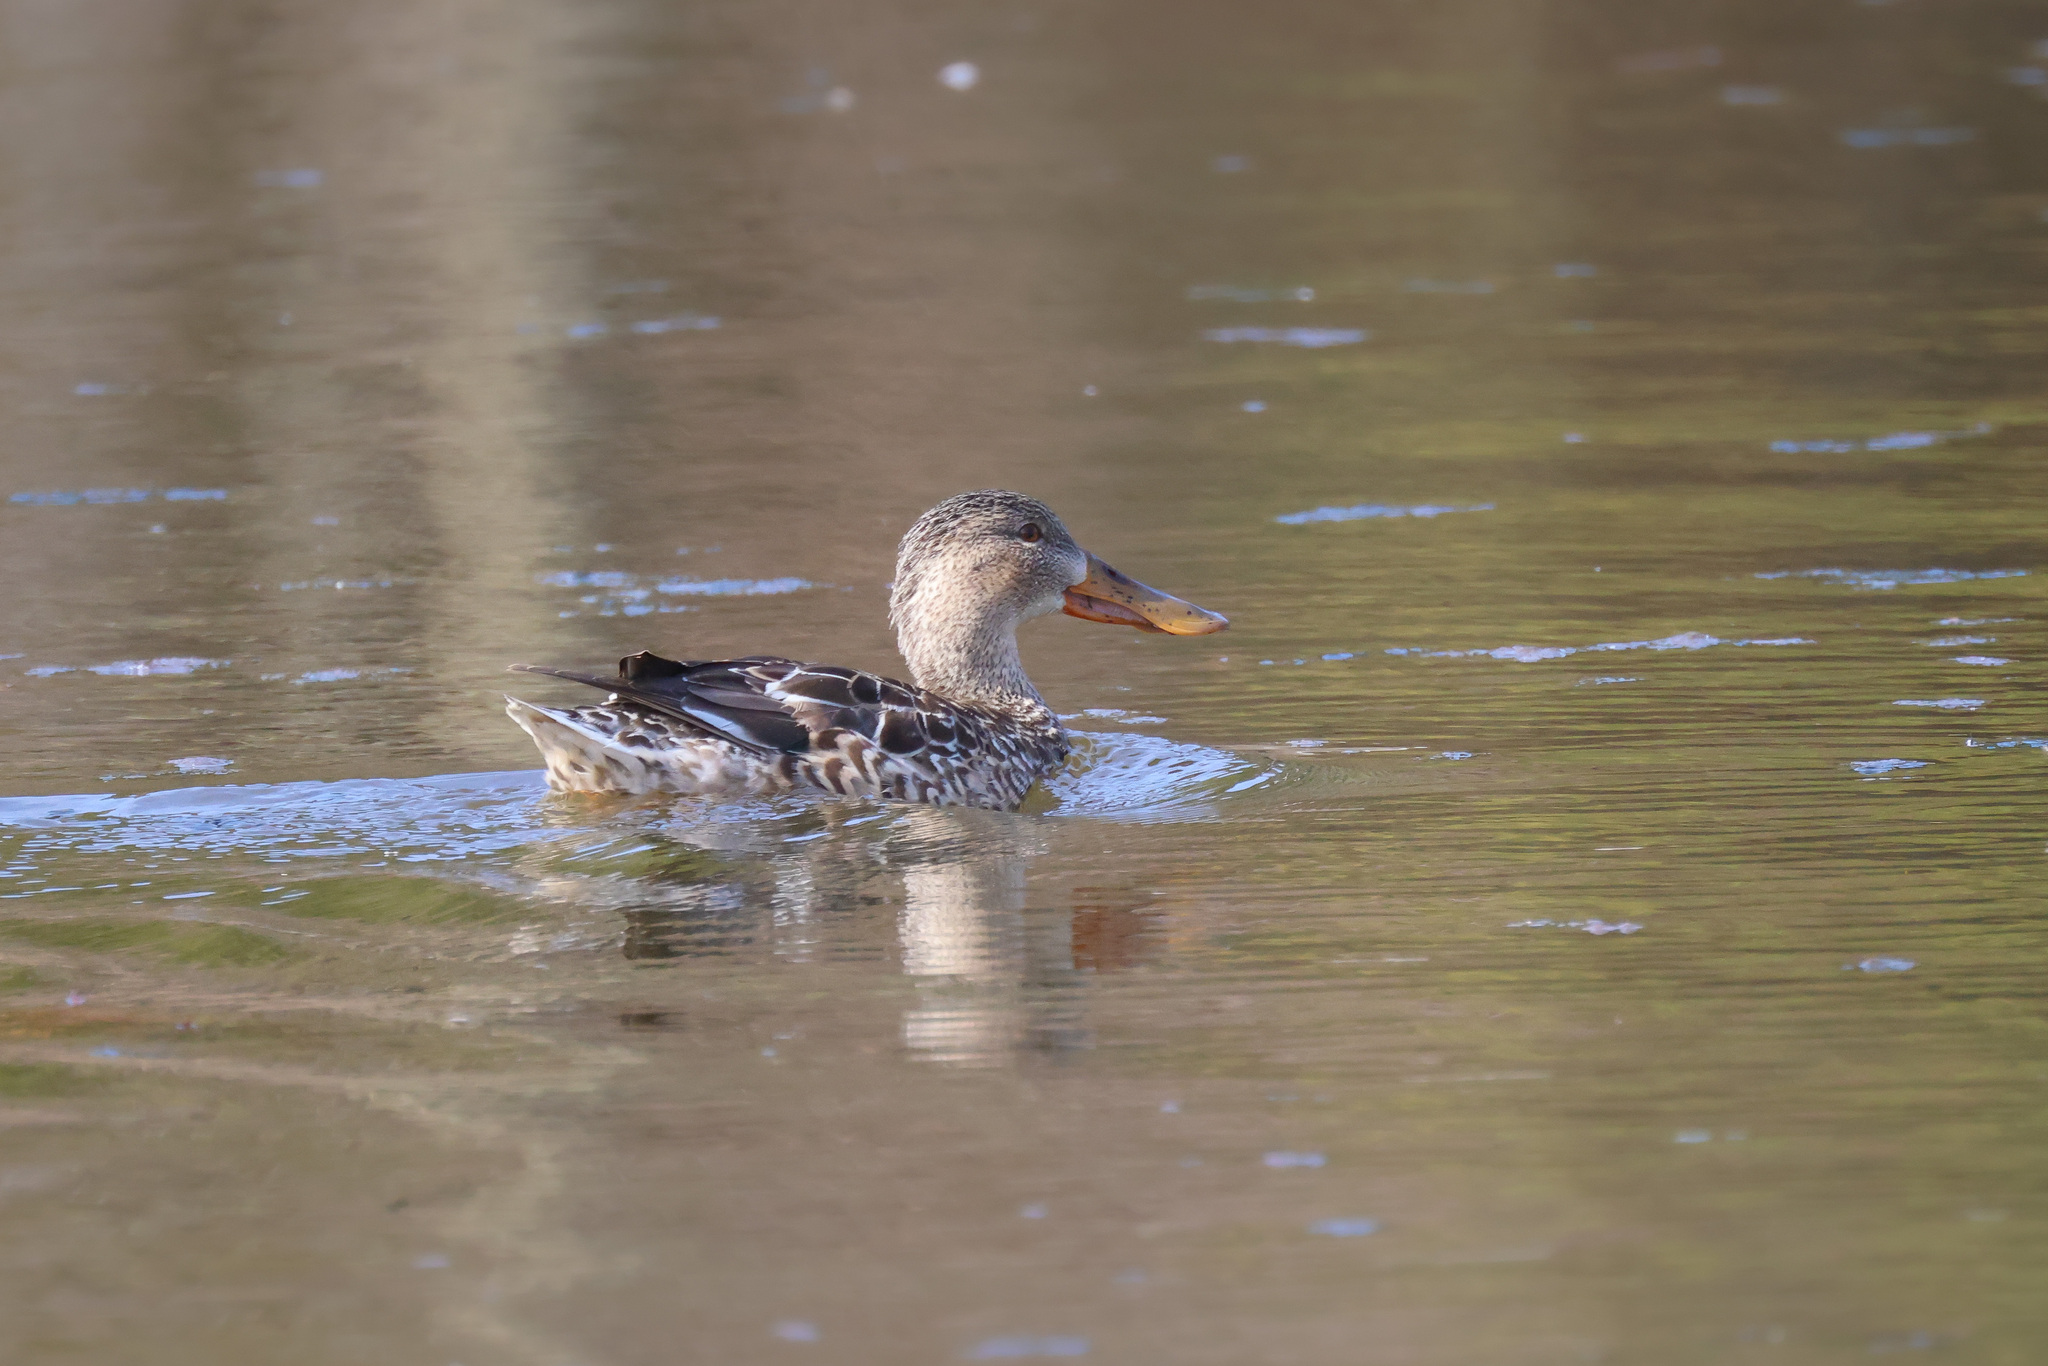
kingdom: Animalia
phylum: Chordata
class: Aves
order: Anseriformes
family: Anatidae
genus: Spatula
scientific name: Spatula clypeata
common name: Northern shoveler
